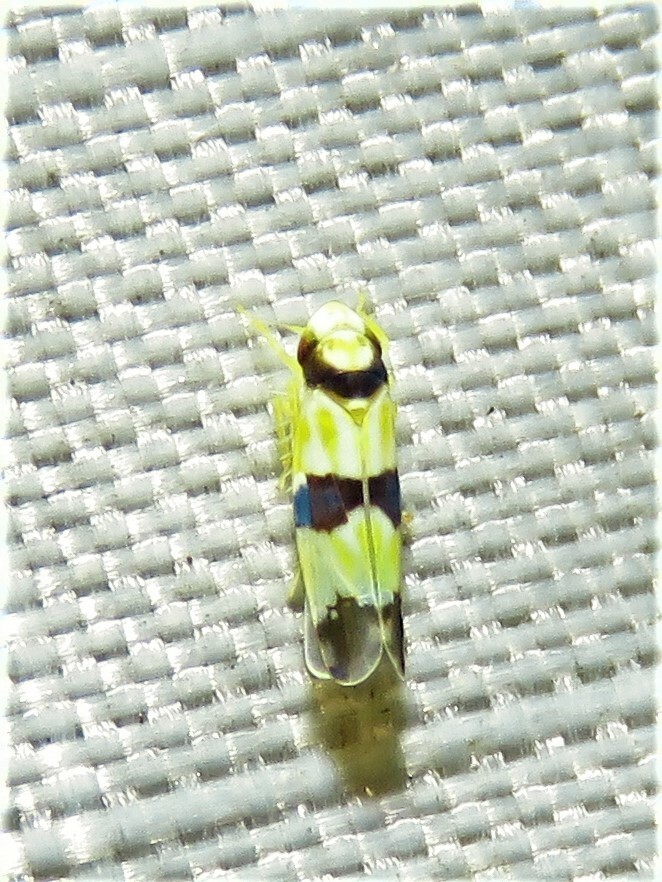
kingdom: Animalia
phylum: Arthropoda
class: Insecta
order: Hemiptera
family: Cicadellidae
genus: Erythroneura
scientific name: Erythroneura calycula
